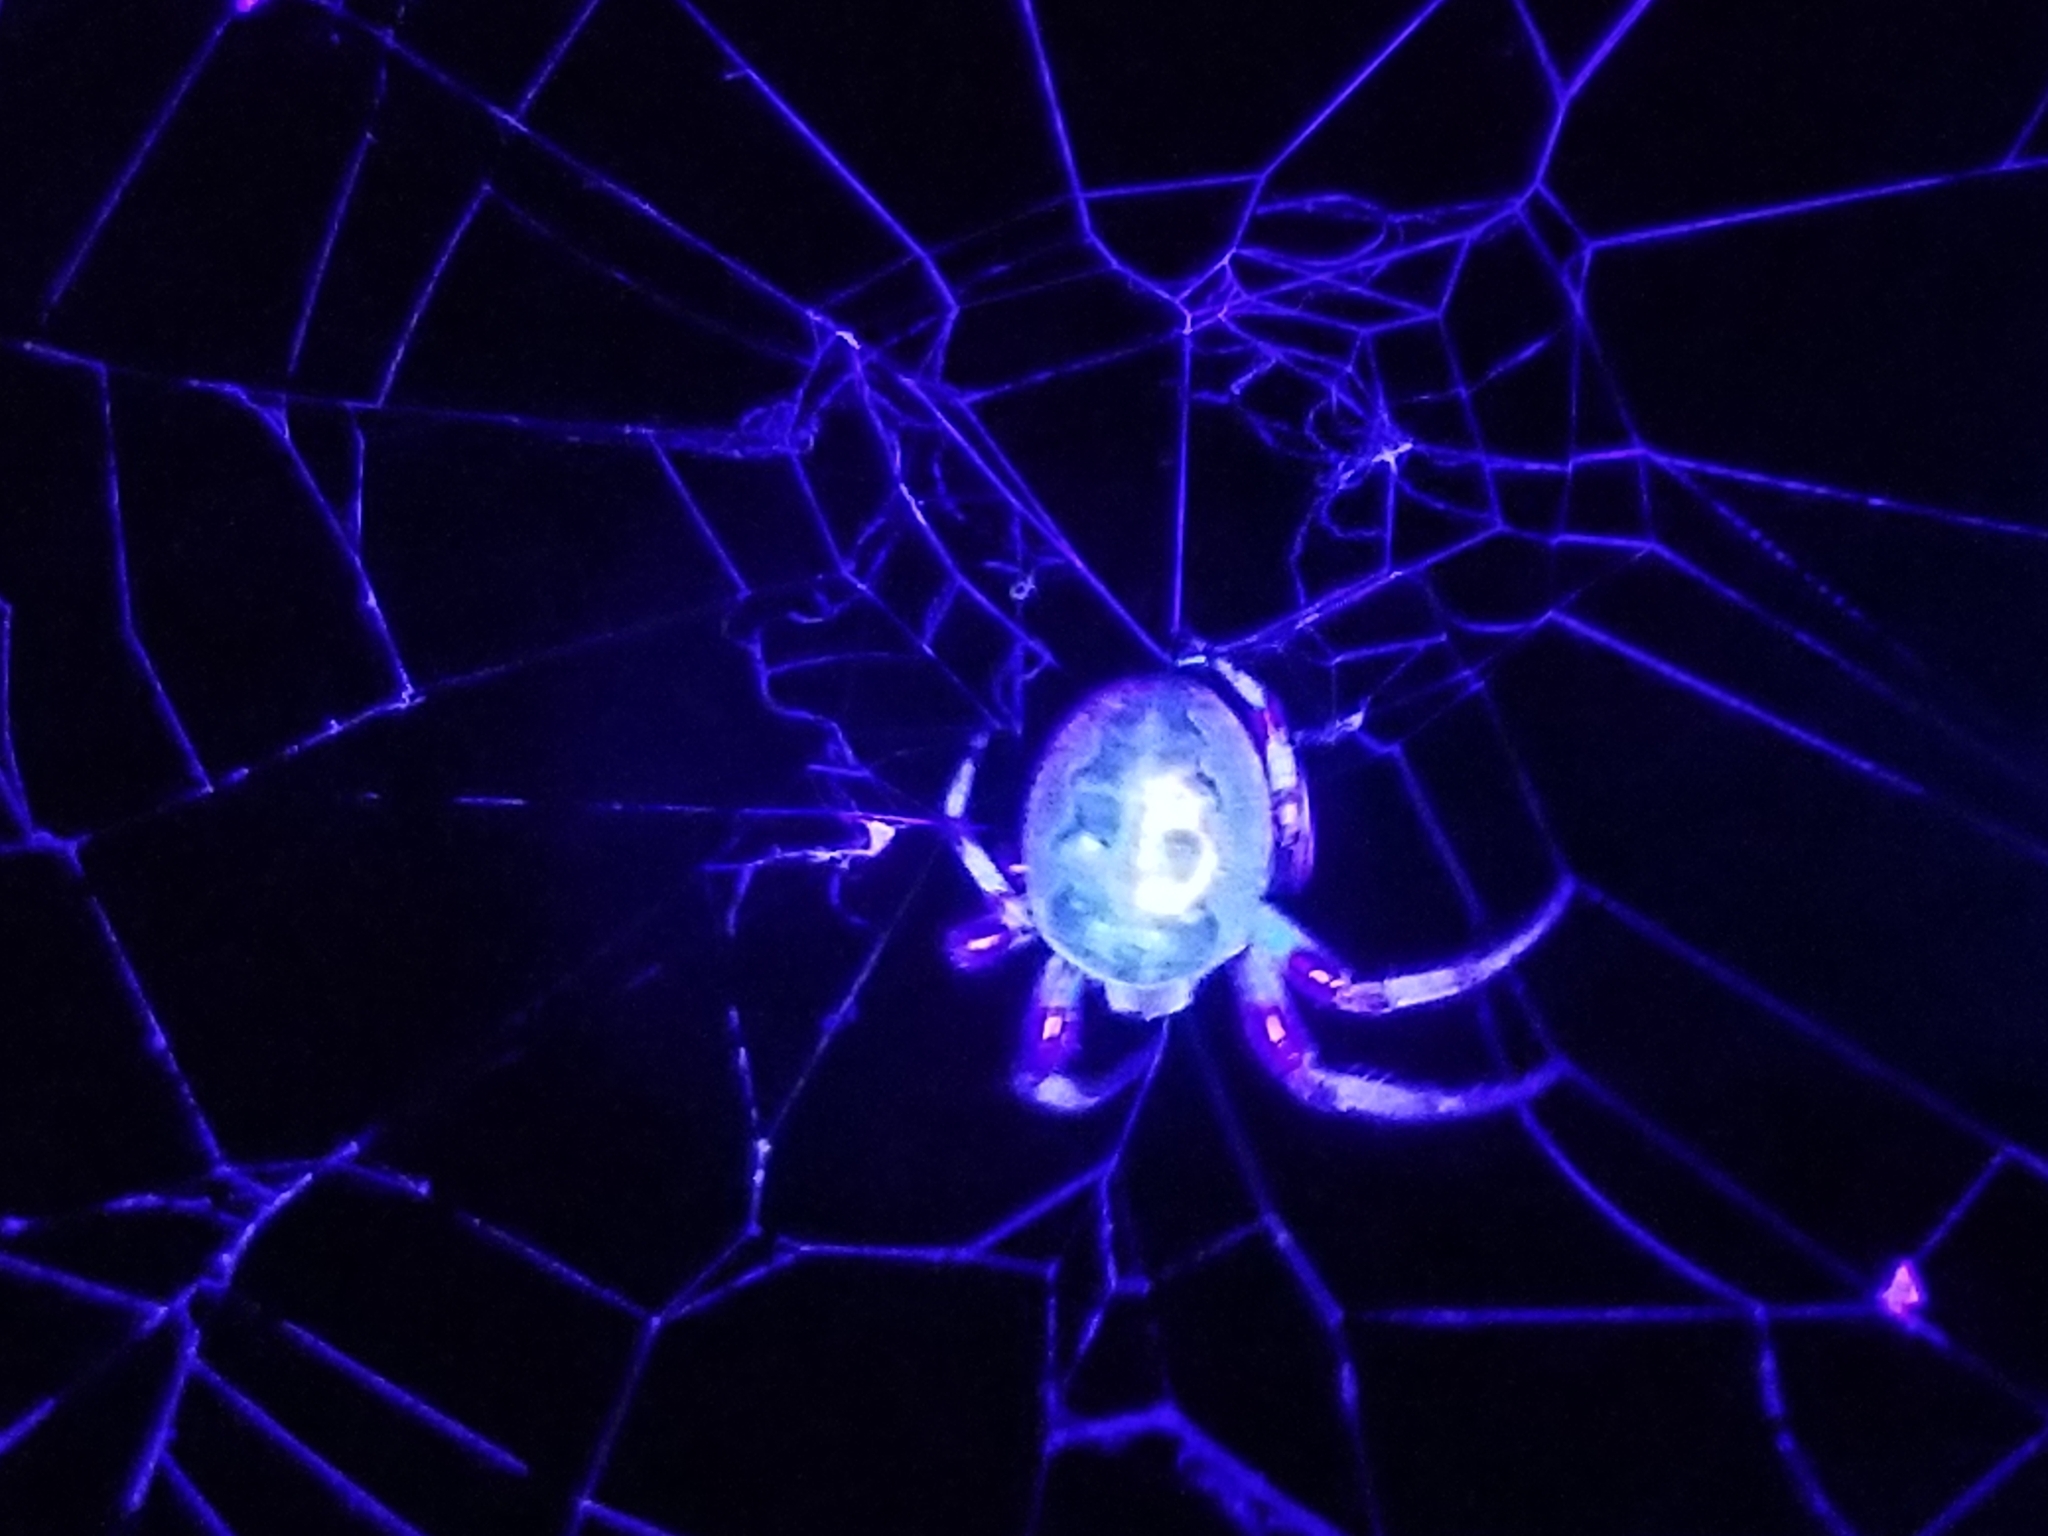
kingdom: Animalia
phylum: Arthropoda
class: Arachnida
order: Araneae
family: Araneidae
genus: Larinioides
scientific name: Larinioides cornutus
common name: Furrow orbweaver
